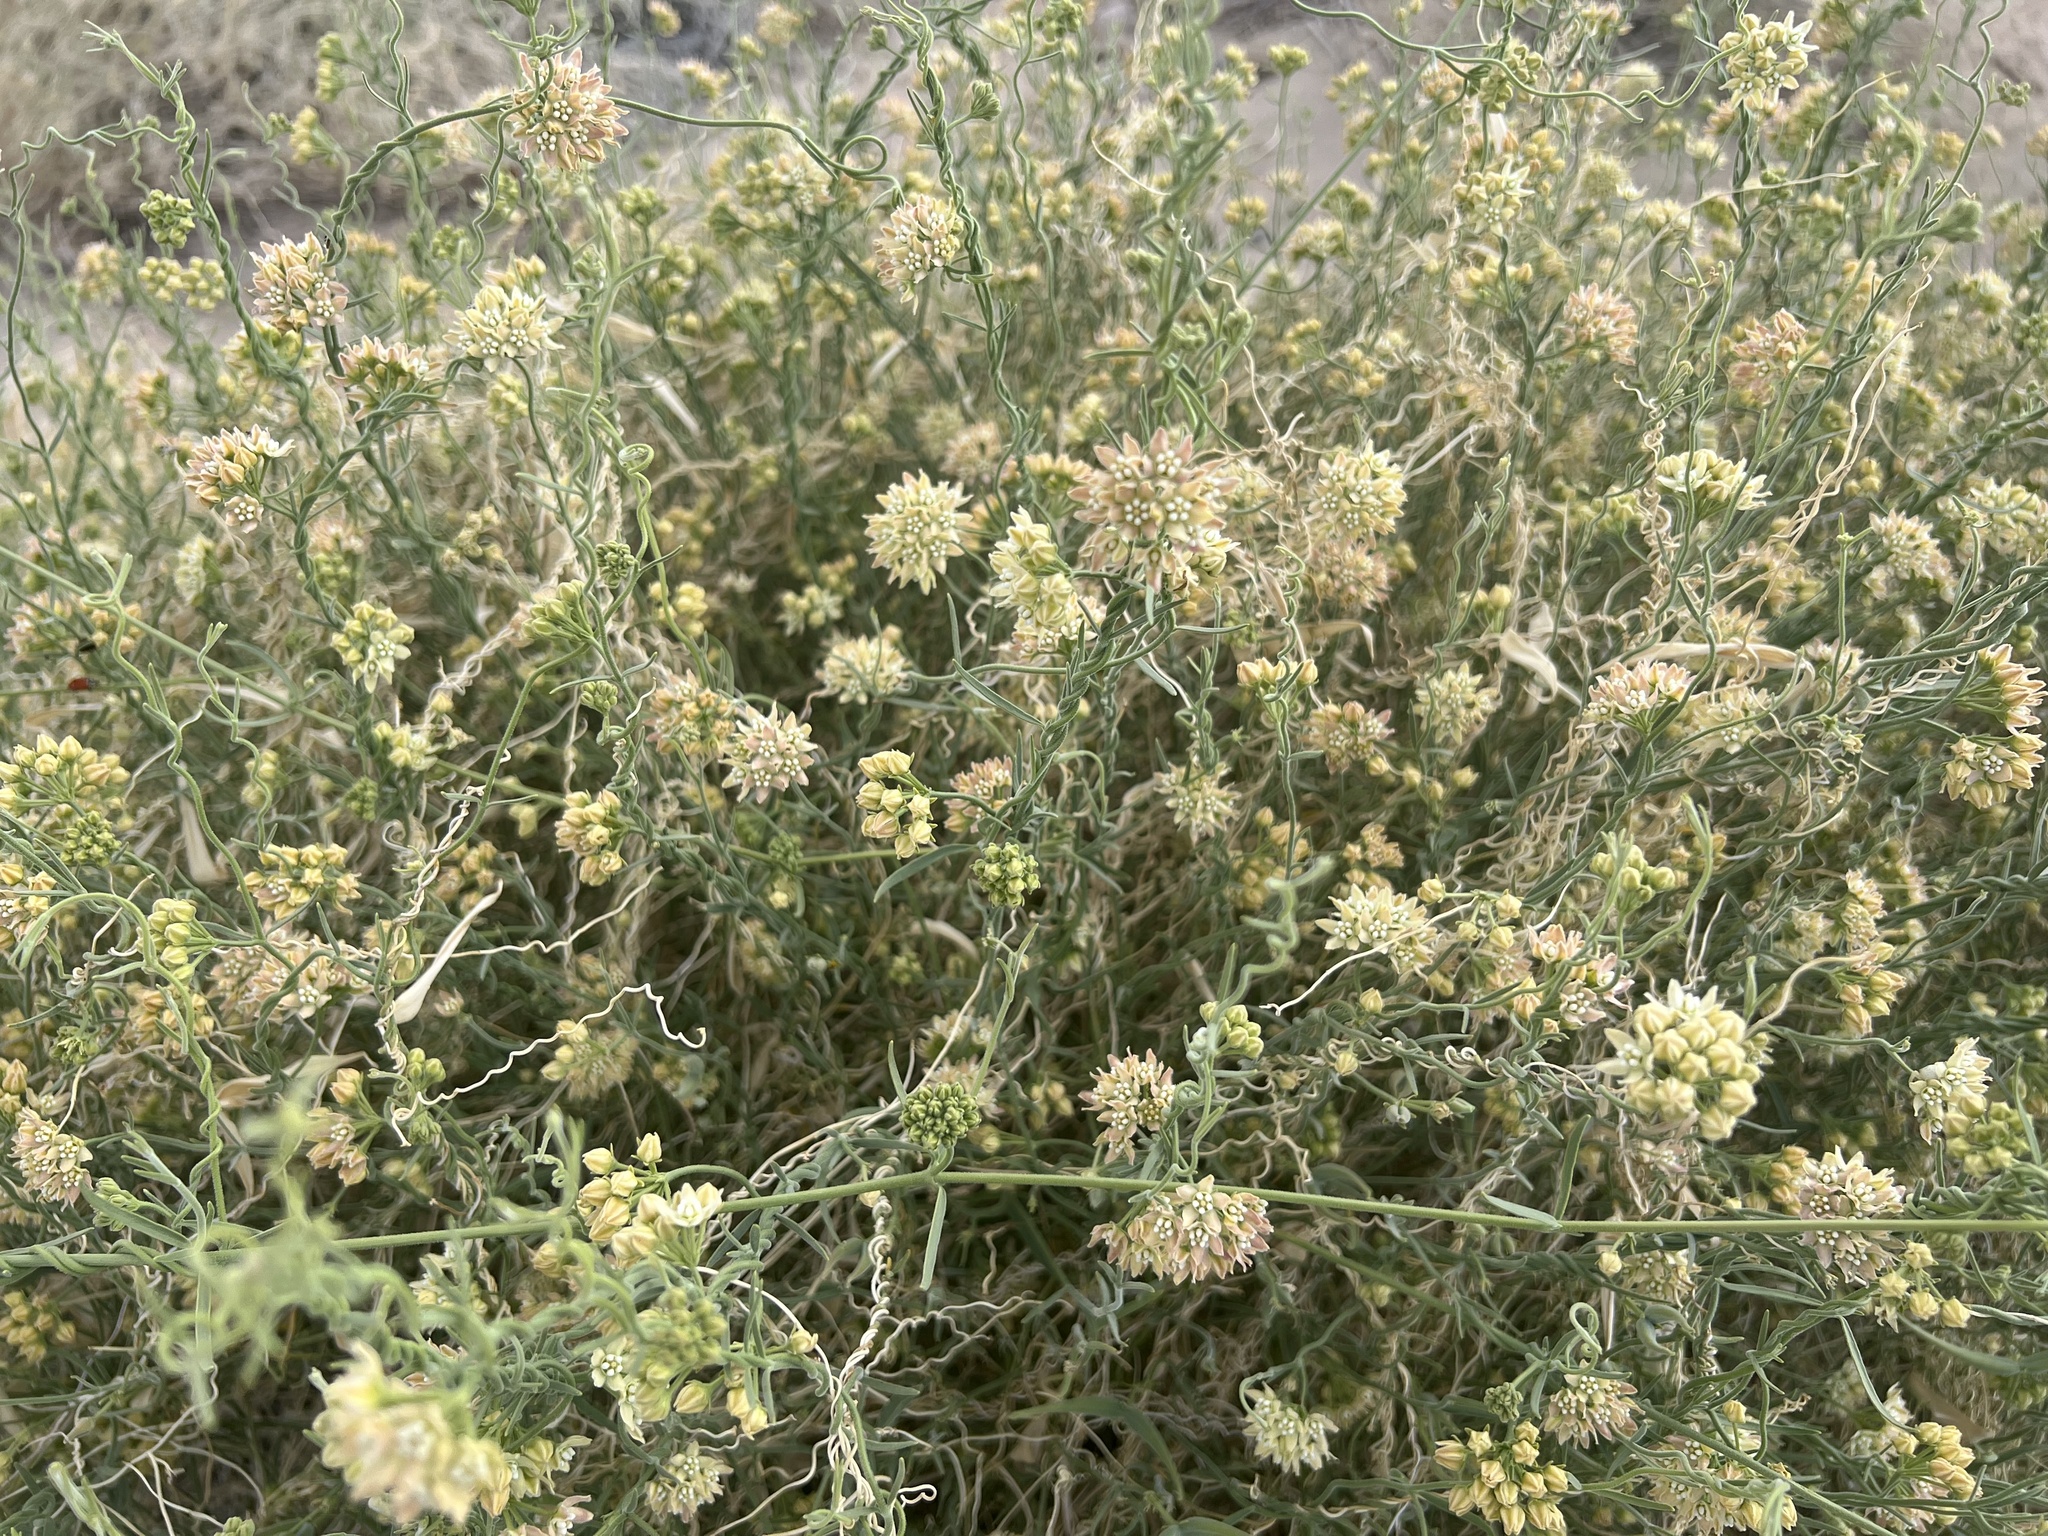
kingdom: Plantae
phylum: Tracheophyta
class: Magnoliopsida
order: Gentianales
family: Apocynaceae
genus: Funastrum
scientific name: Funastrum hirtellum
